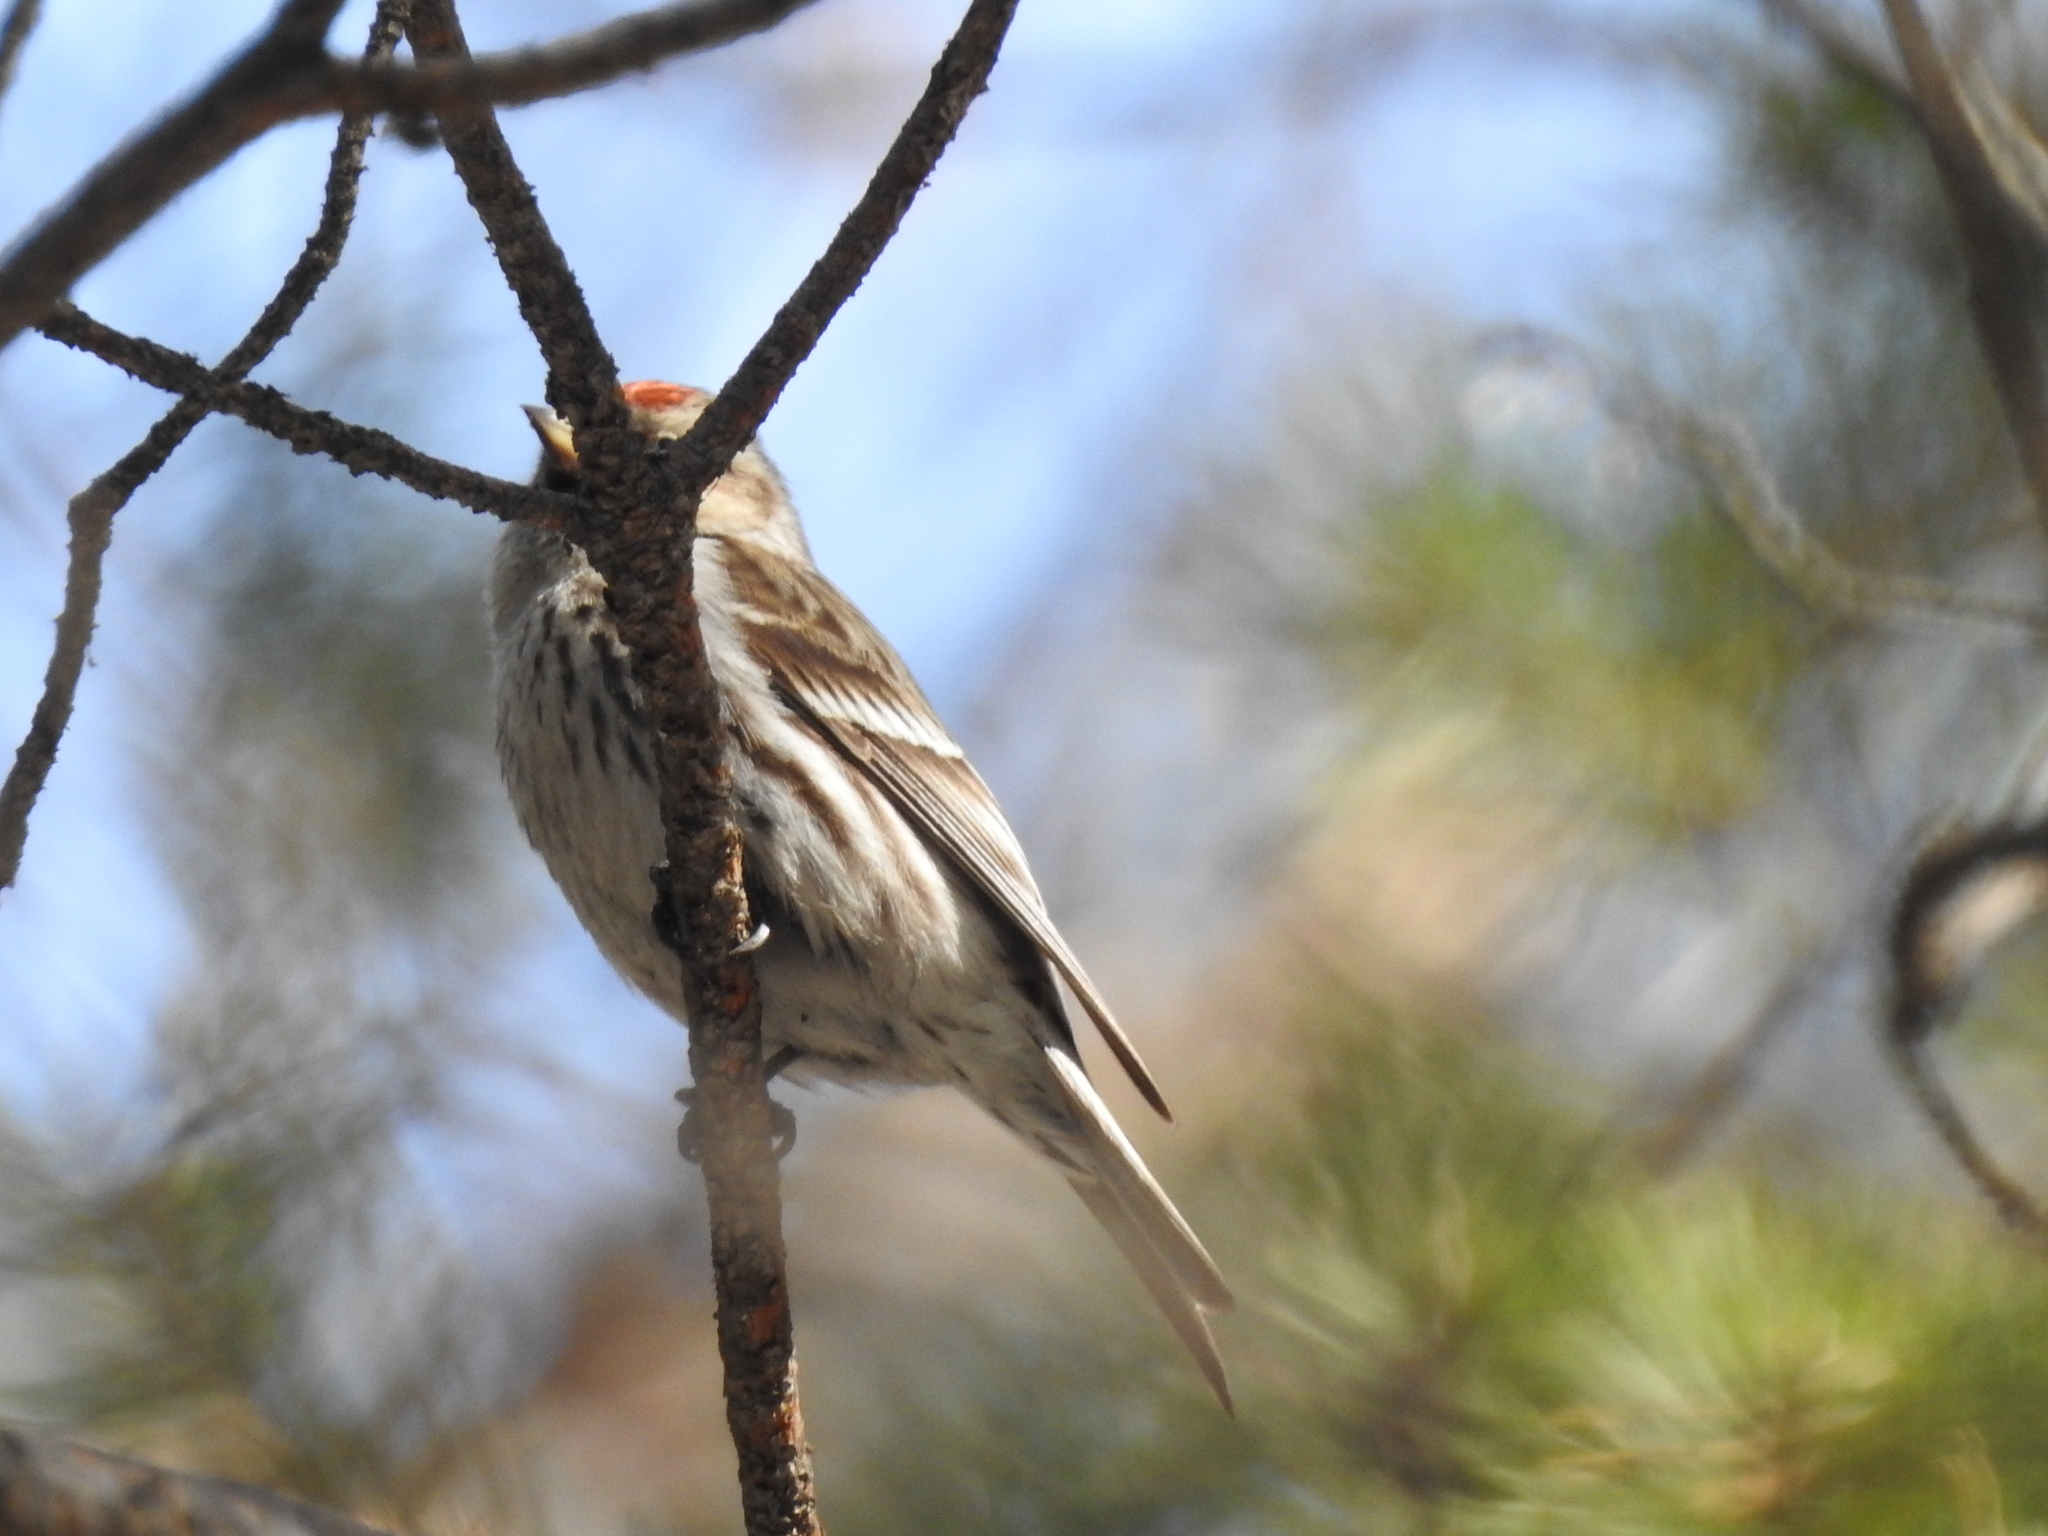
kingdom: Animalia
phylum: Chordata
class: Aves
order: Passeriformes
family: Fringillidae
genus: Acanthis
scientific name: Acanthis flammea
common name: Common redpoll
